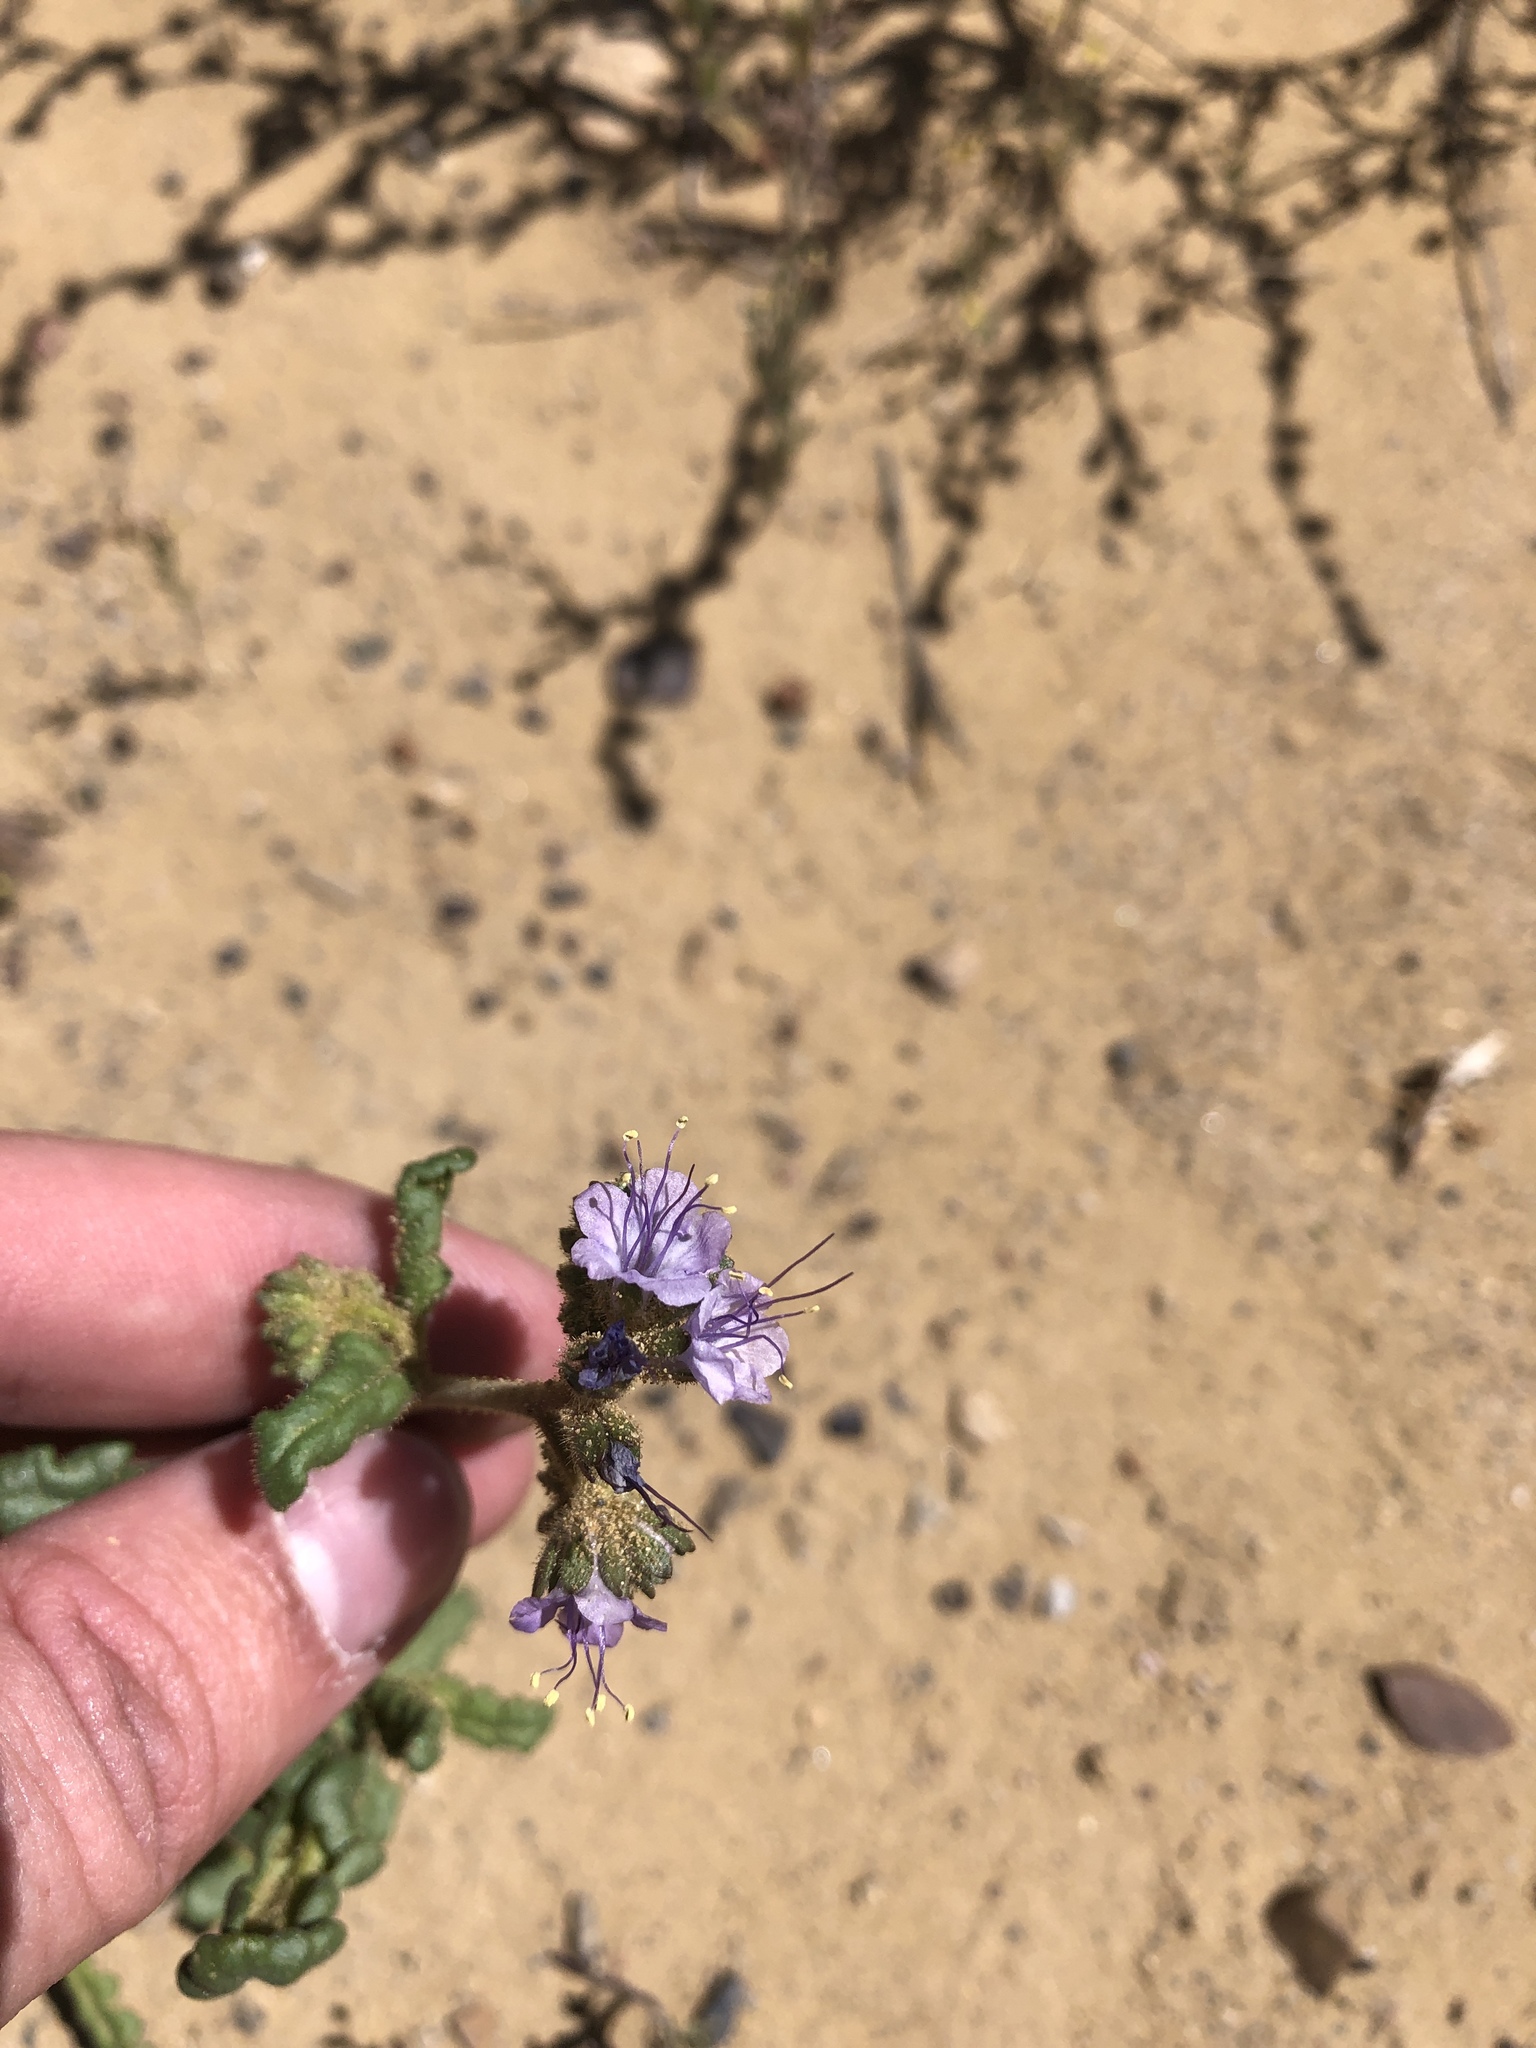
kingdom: Plantae
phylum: Tracheophyta
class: Magnoliopsida
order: Boraginales
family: Hydrophyllaceae
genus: Phacelia
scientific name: Phacelia crenulata
